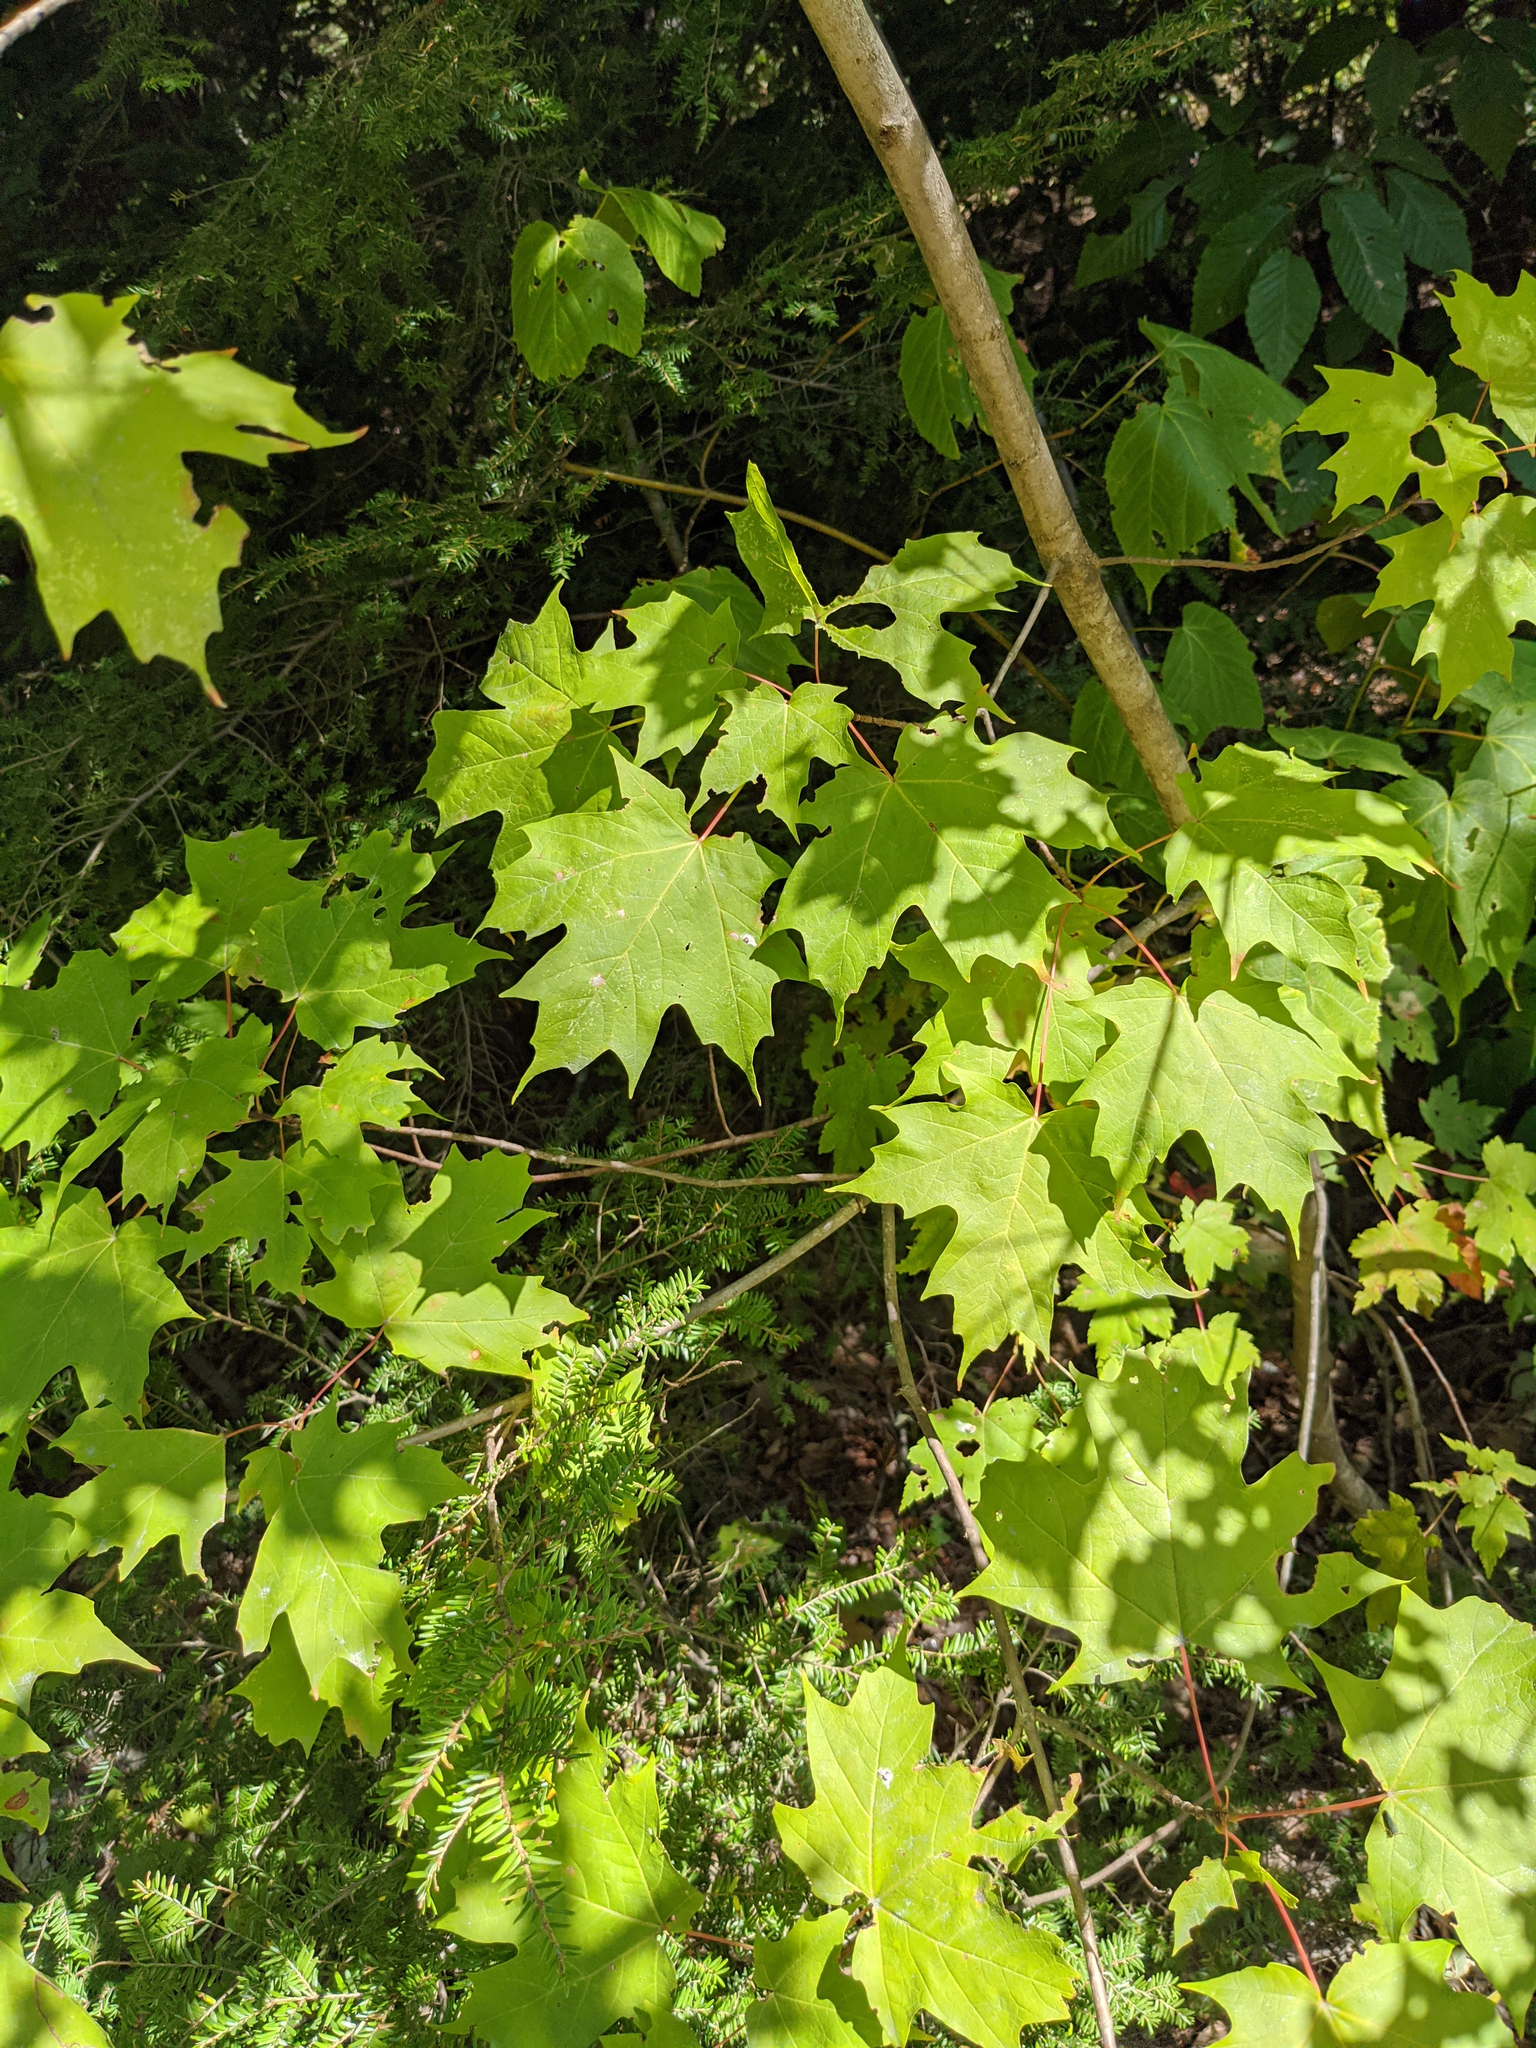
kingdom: Plantae
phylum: Tracheophyta
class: Magnoliopsida
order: Sapindales
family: Sapindaceae
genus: Acer
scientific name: Acer saccharum
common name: Sugar maple
